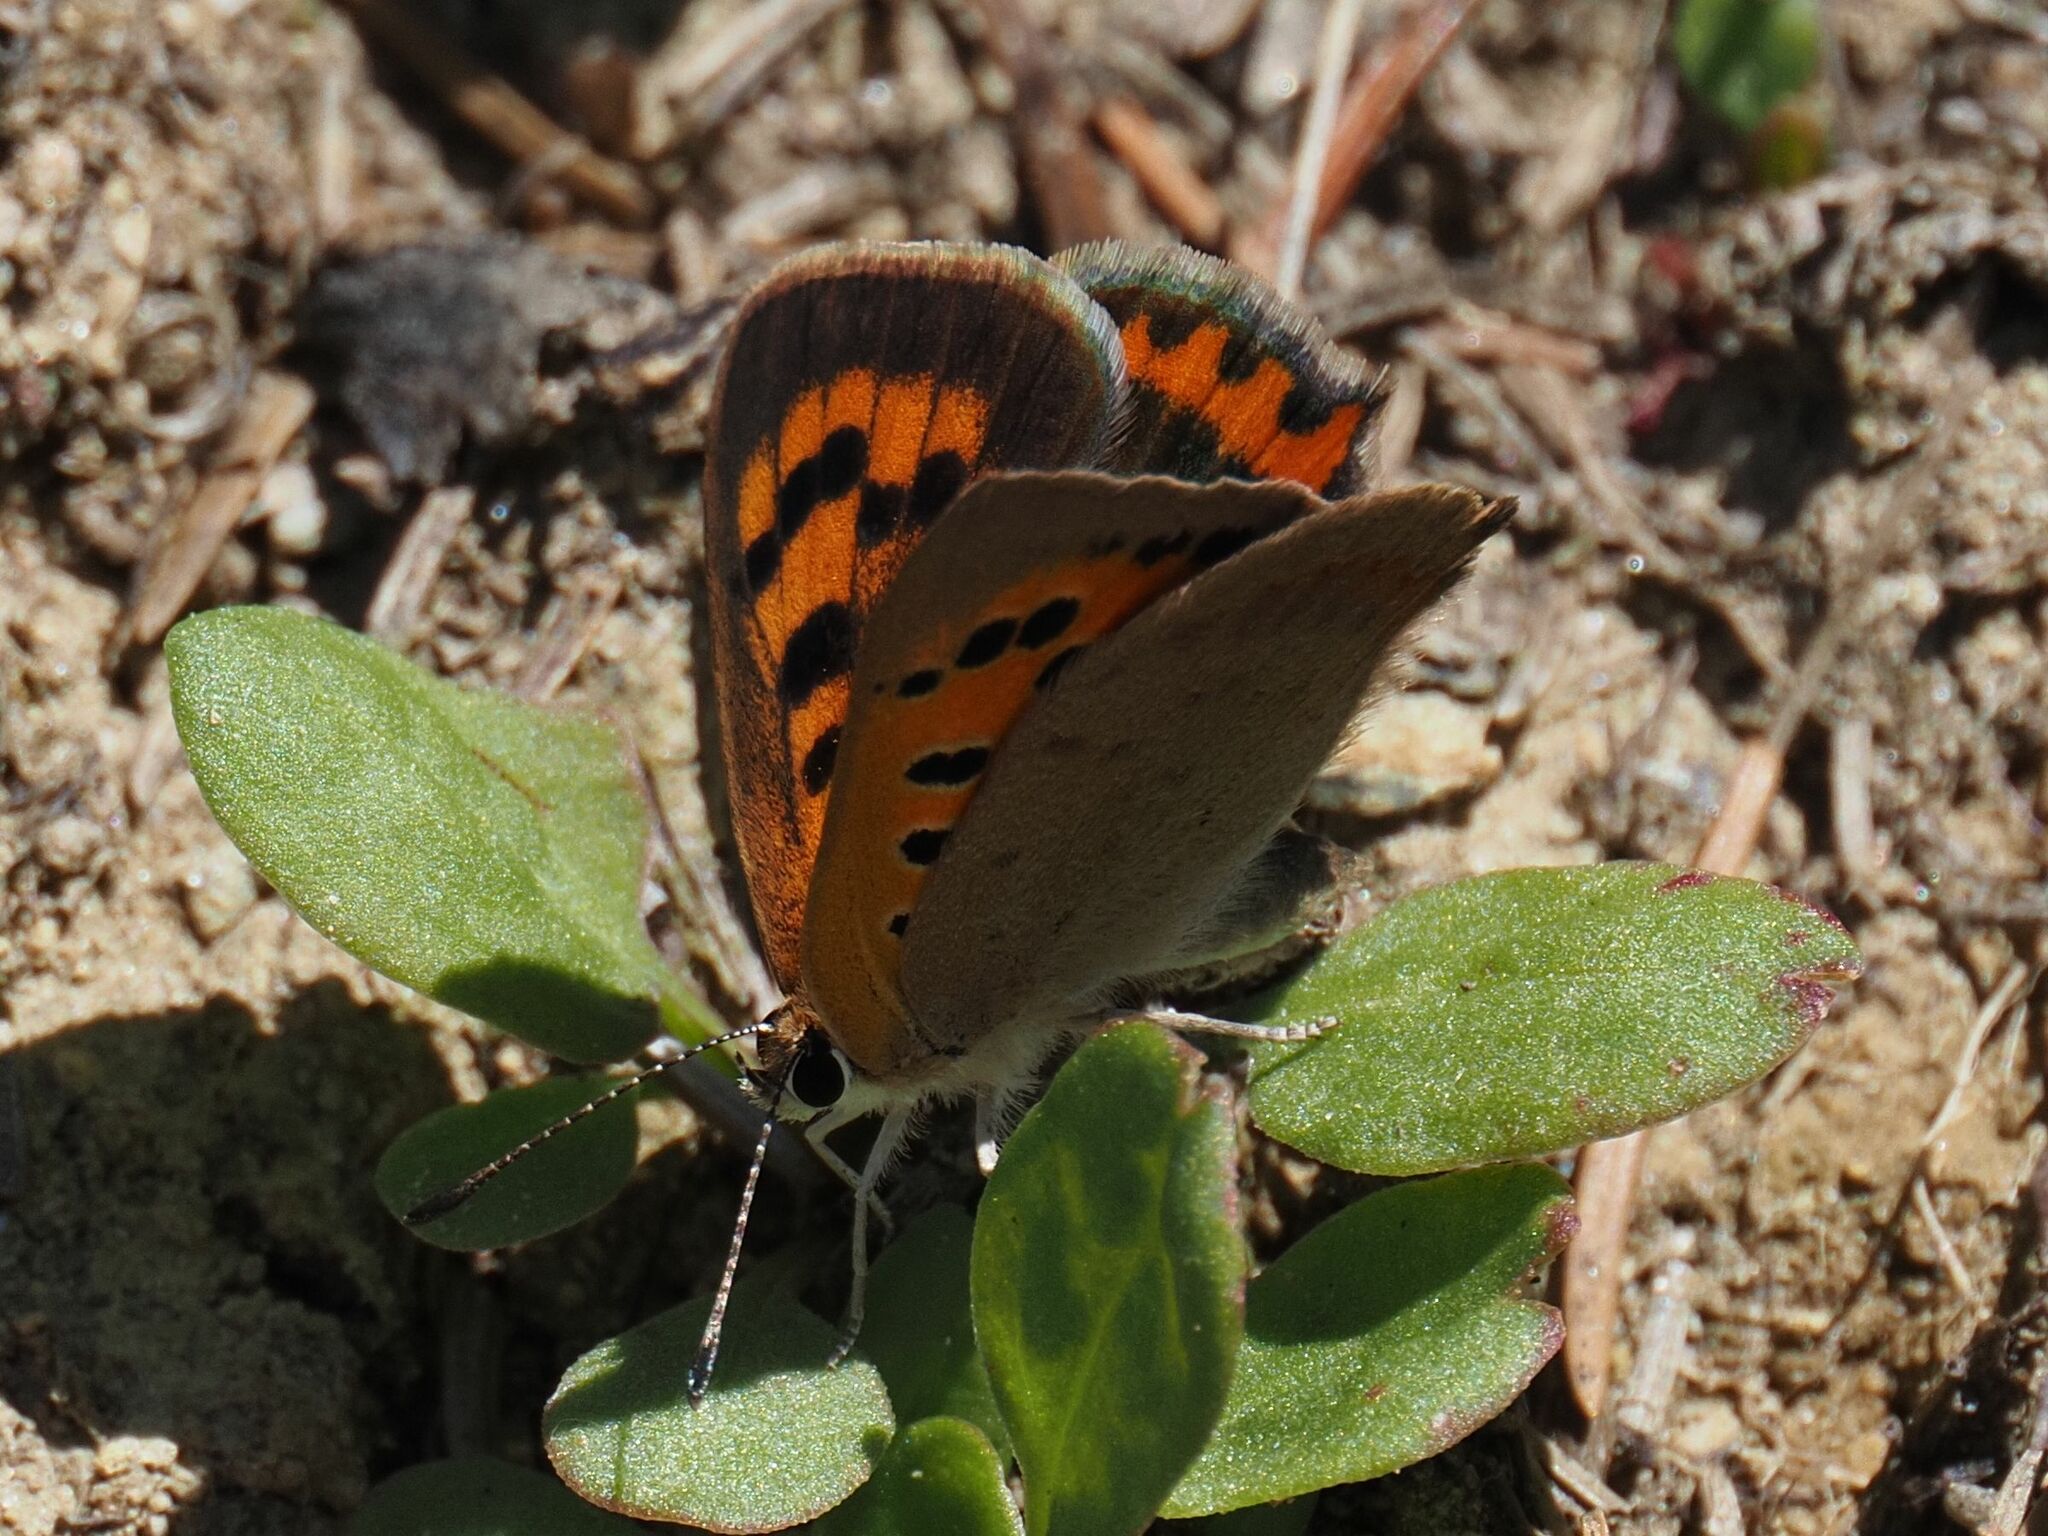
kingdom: Animalia
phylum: Arthropoda
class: Insecta
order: Lepidoptera
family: Lycaenidae
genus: Lycaena
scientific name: Lycaena phlaeas
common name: Small copper
